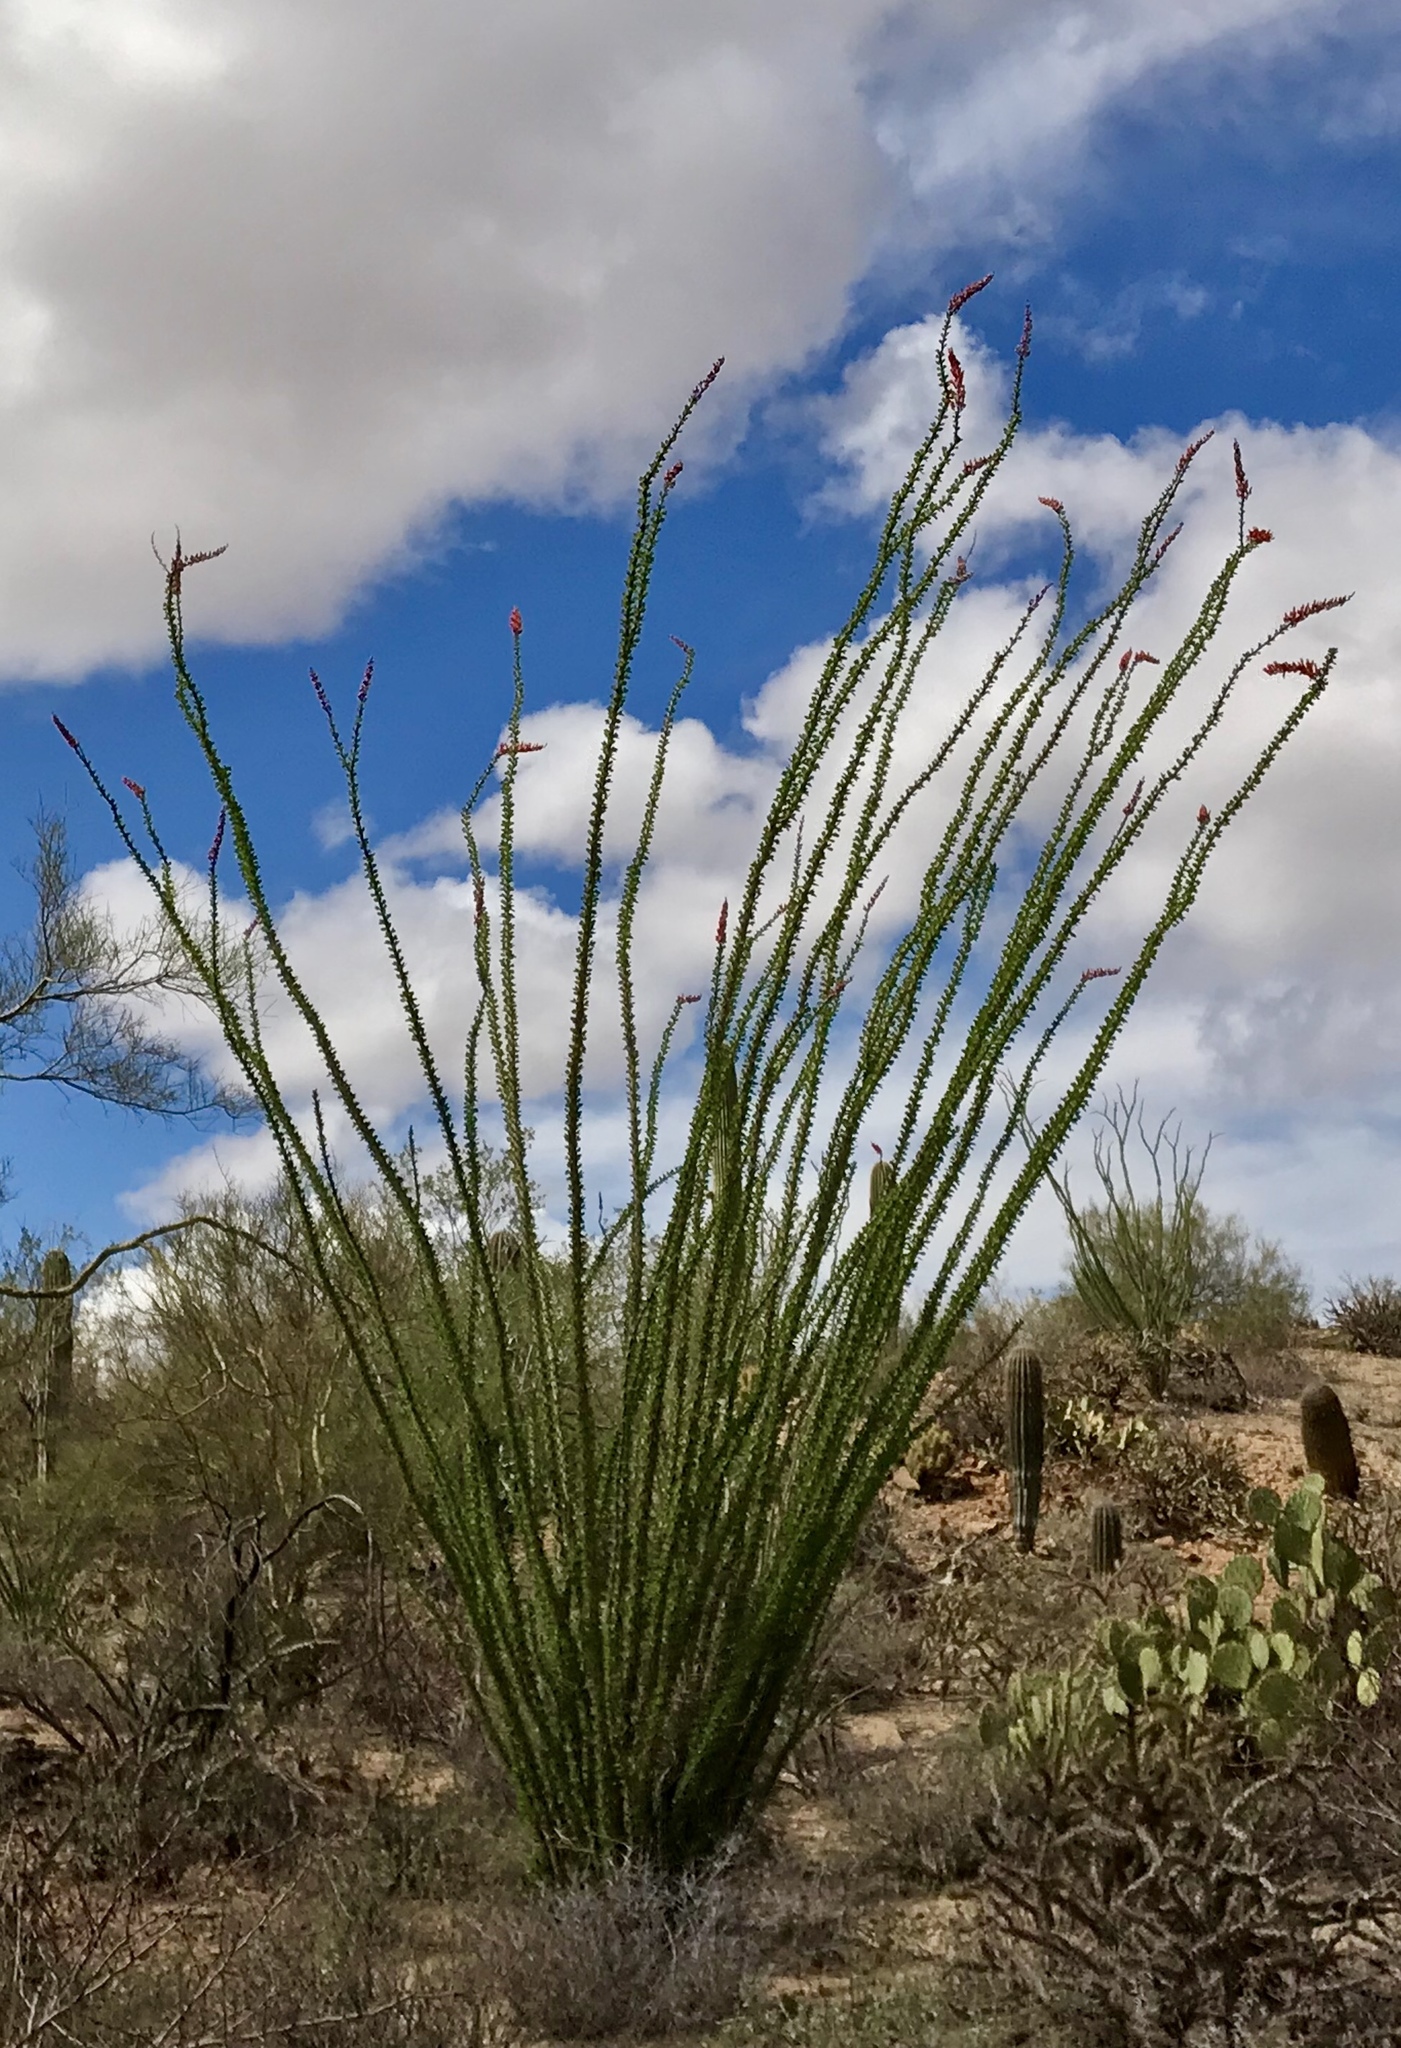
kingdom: Plantae
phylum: Tracheophyta
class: Magnoliopsida
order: Ericales
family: Fouquieriaceae
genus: Fouquieria
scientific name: Fouquieria splendens
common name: Vine-cactus
